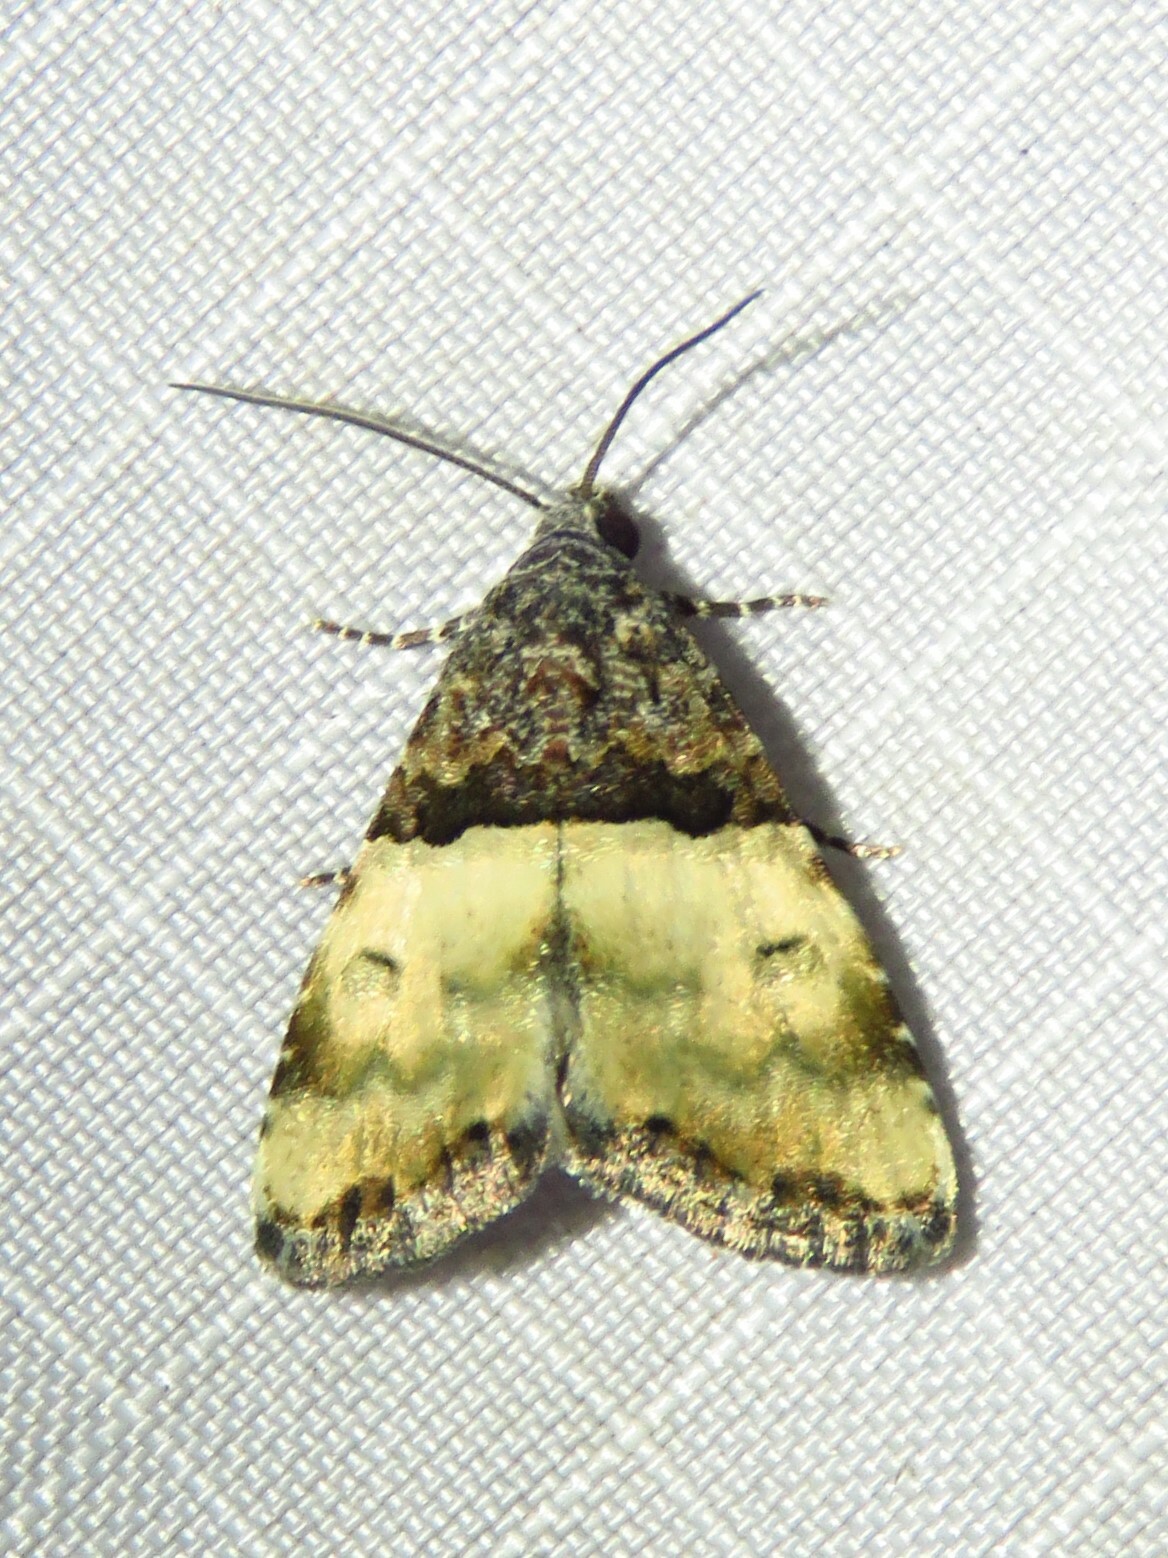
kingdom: Animalia
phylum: Arthropoda
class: Insecta
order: Lepidoptera
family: Noctuidae
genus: Cobubatha
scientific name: Cobubatha dividua
